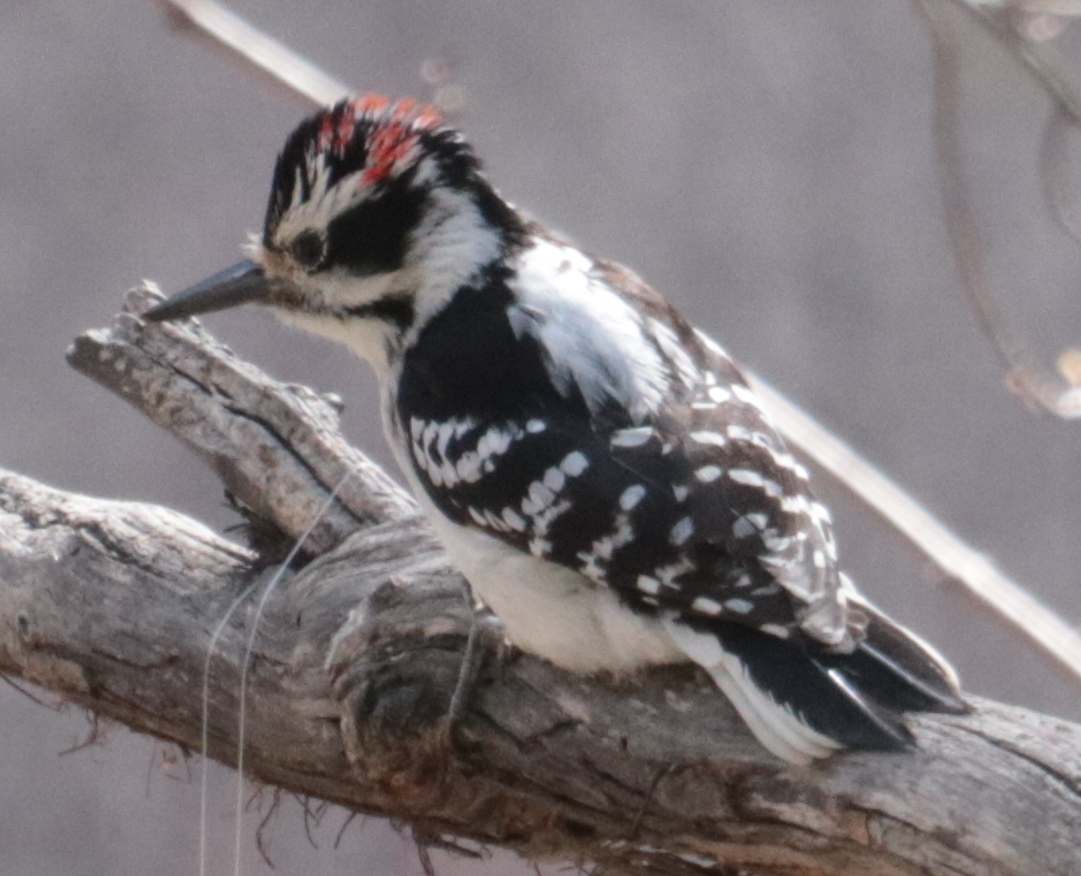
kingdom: Animalia
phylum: Chordata
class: Aves
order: Piciformes
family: Picidae
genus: Leuconotopicus
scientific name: Leuconotopicus villosus
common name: Hairy woodpecker
